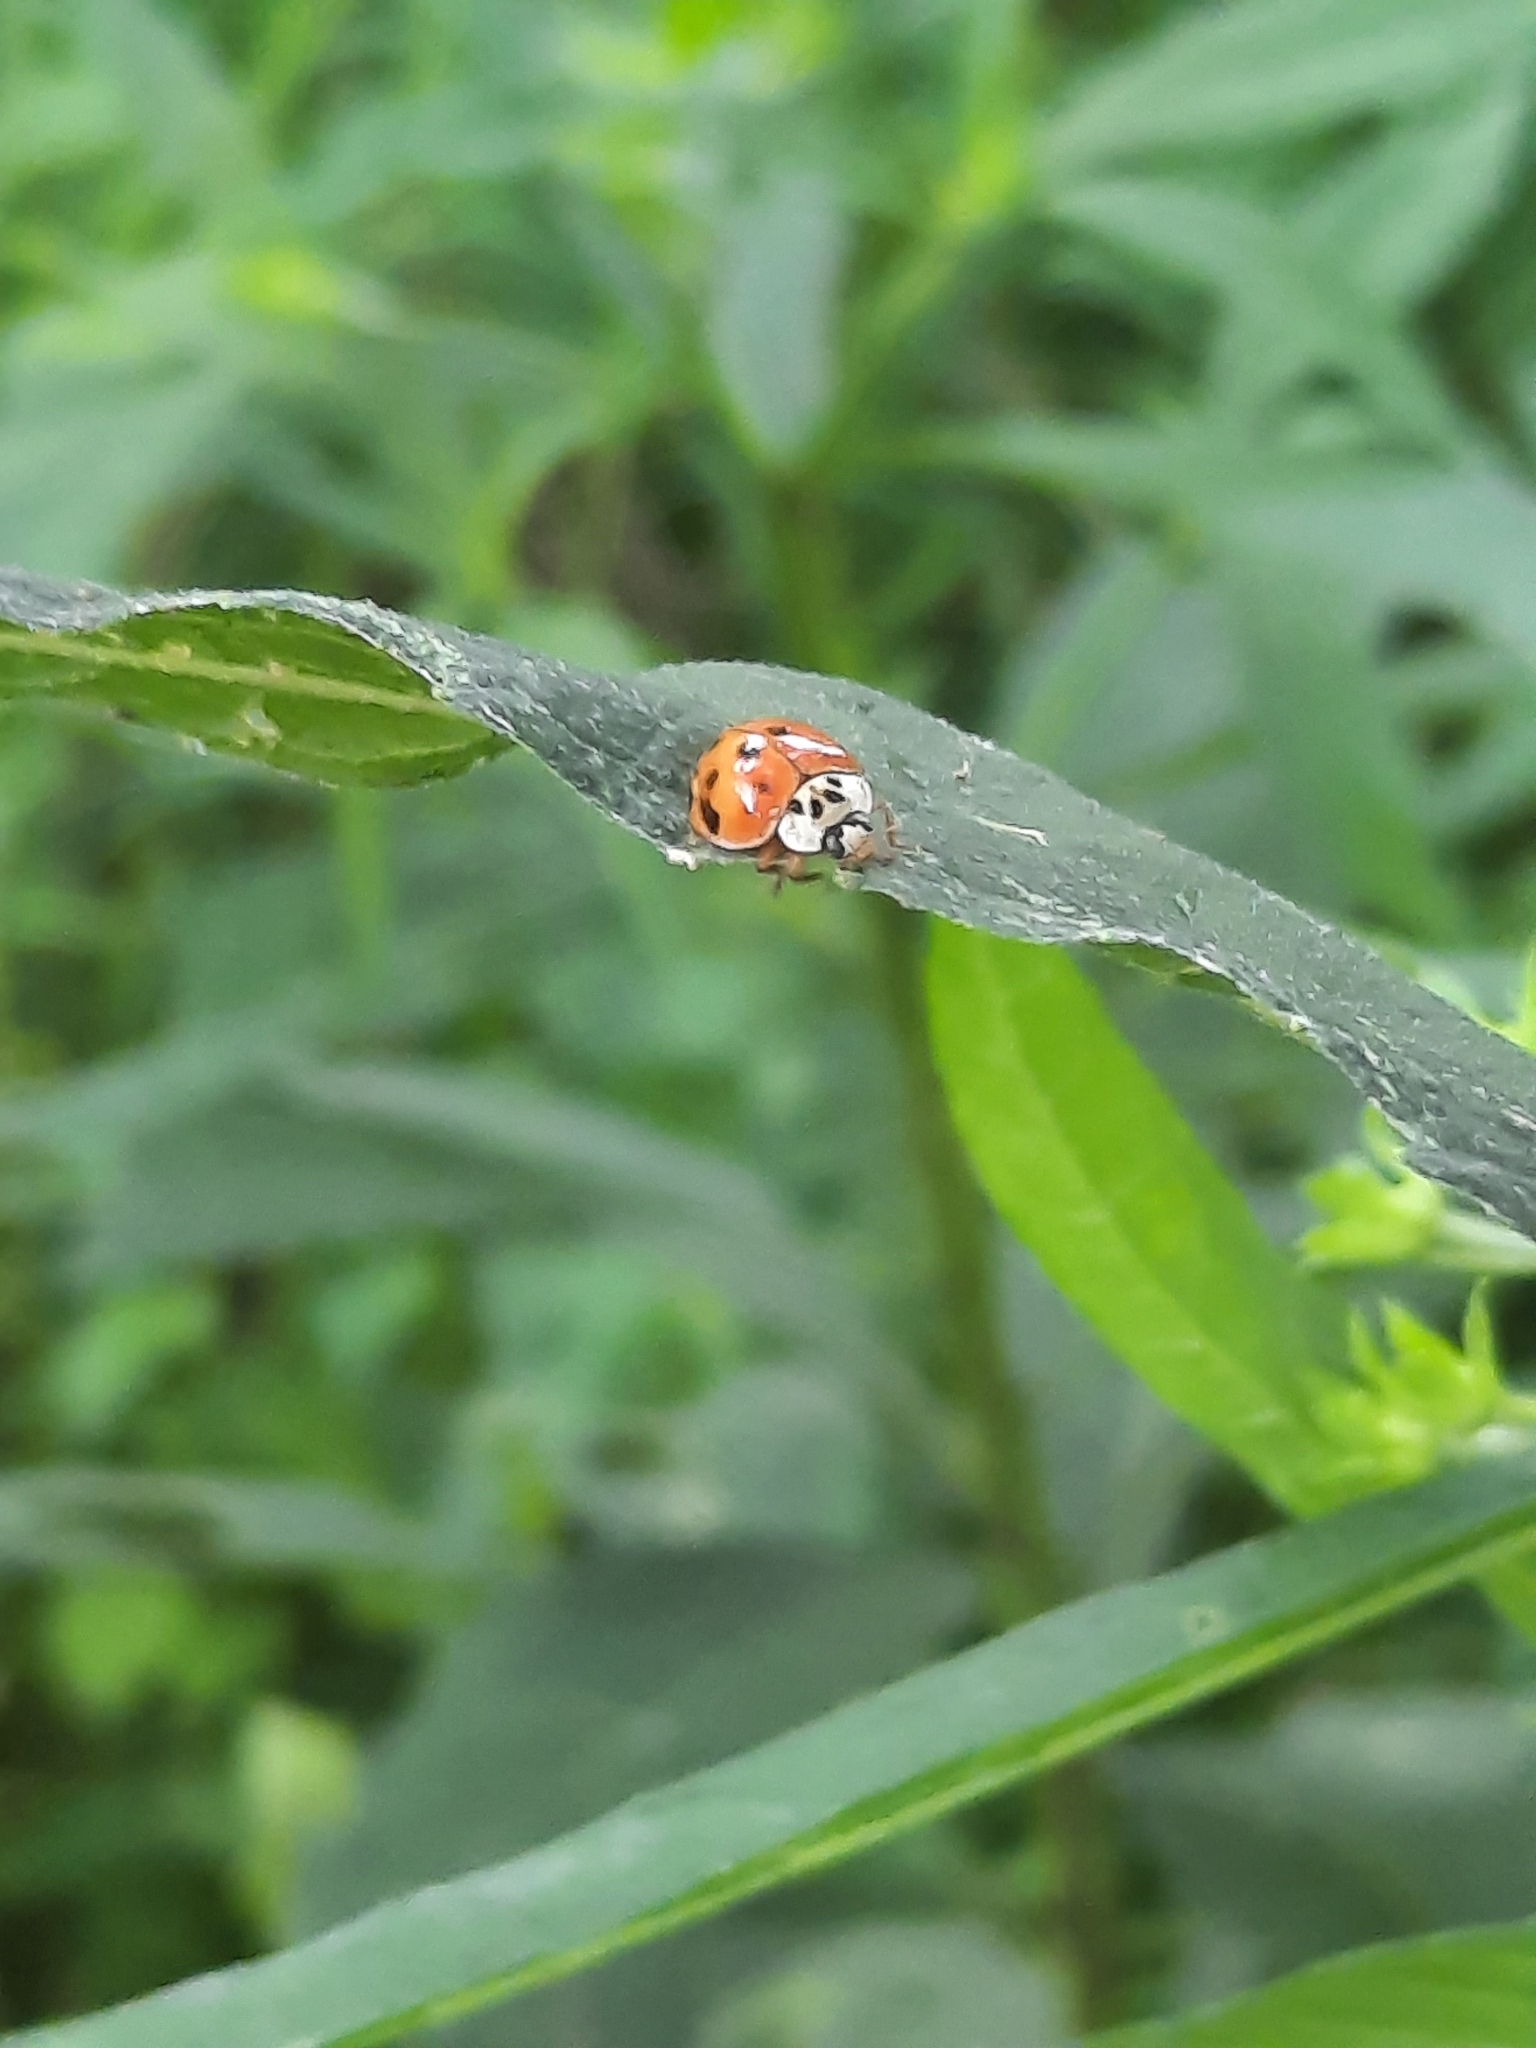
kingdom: Animalia
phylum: Arthropoda
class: Insecta
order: Coleoptera
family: Coccinellidae
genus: Harmonia
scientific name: Harmonia axyridis
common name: Harlequin ladybird
